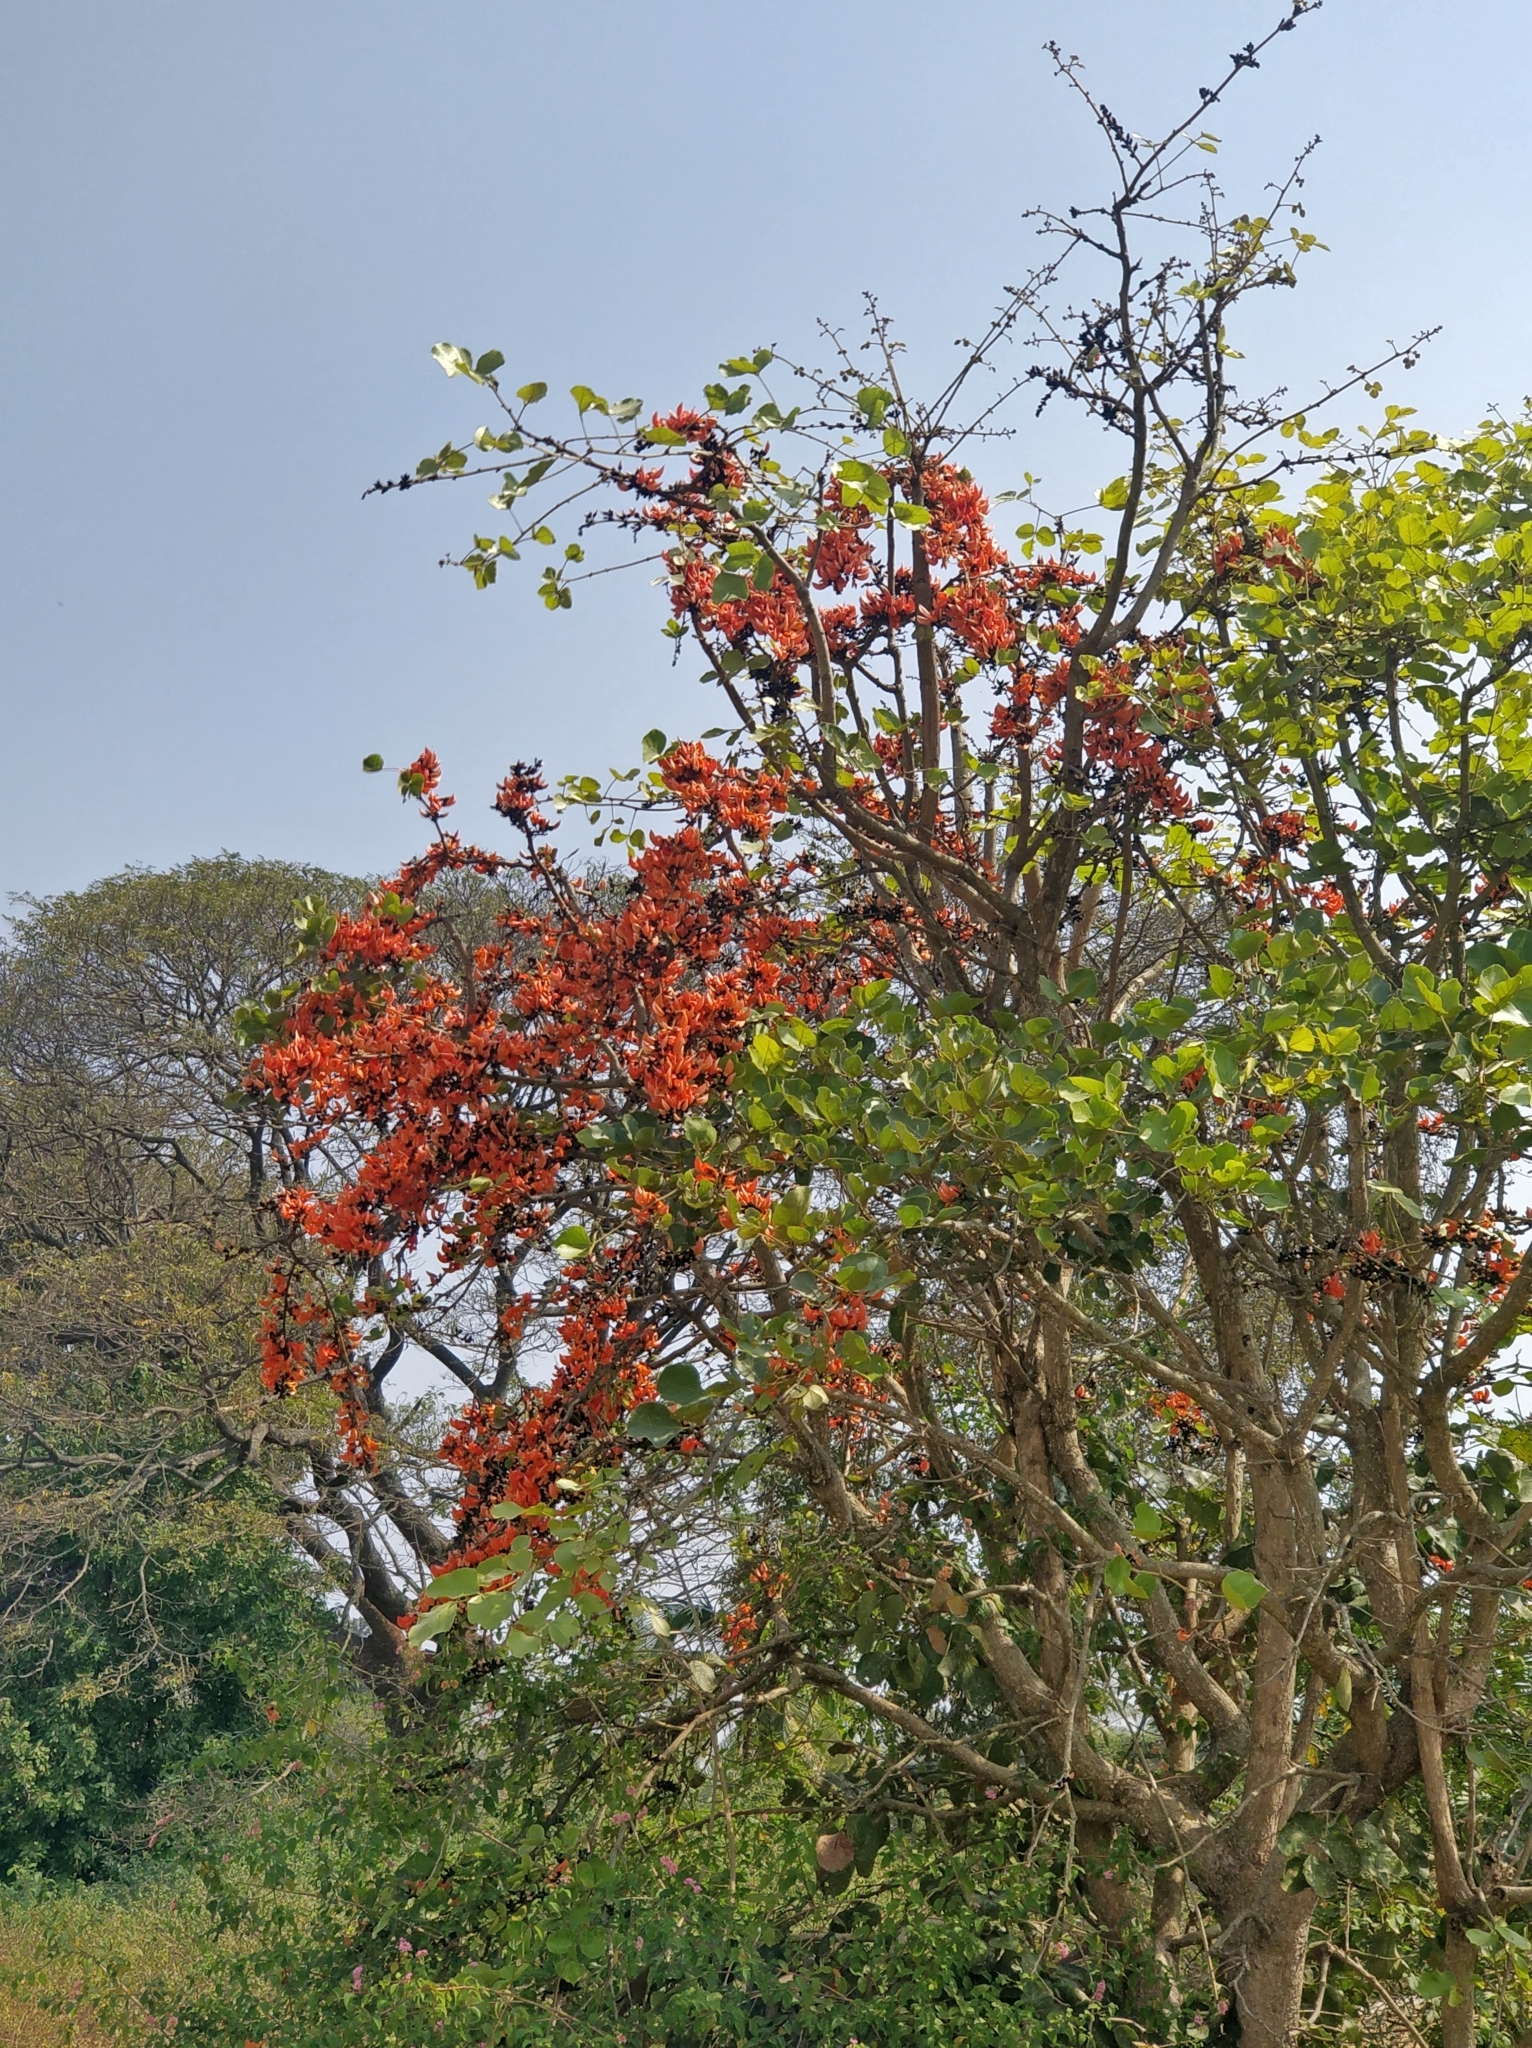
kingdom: Plantae
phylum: Tracheophyta
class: Magnoliopsida
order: Fabales
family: Fabaceae
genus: Butea
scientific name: Butea monosperma
